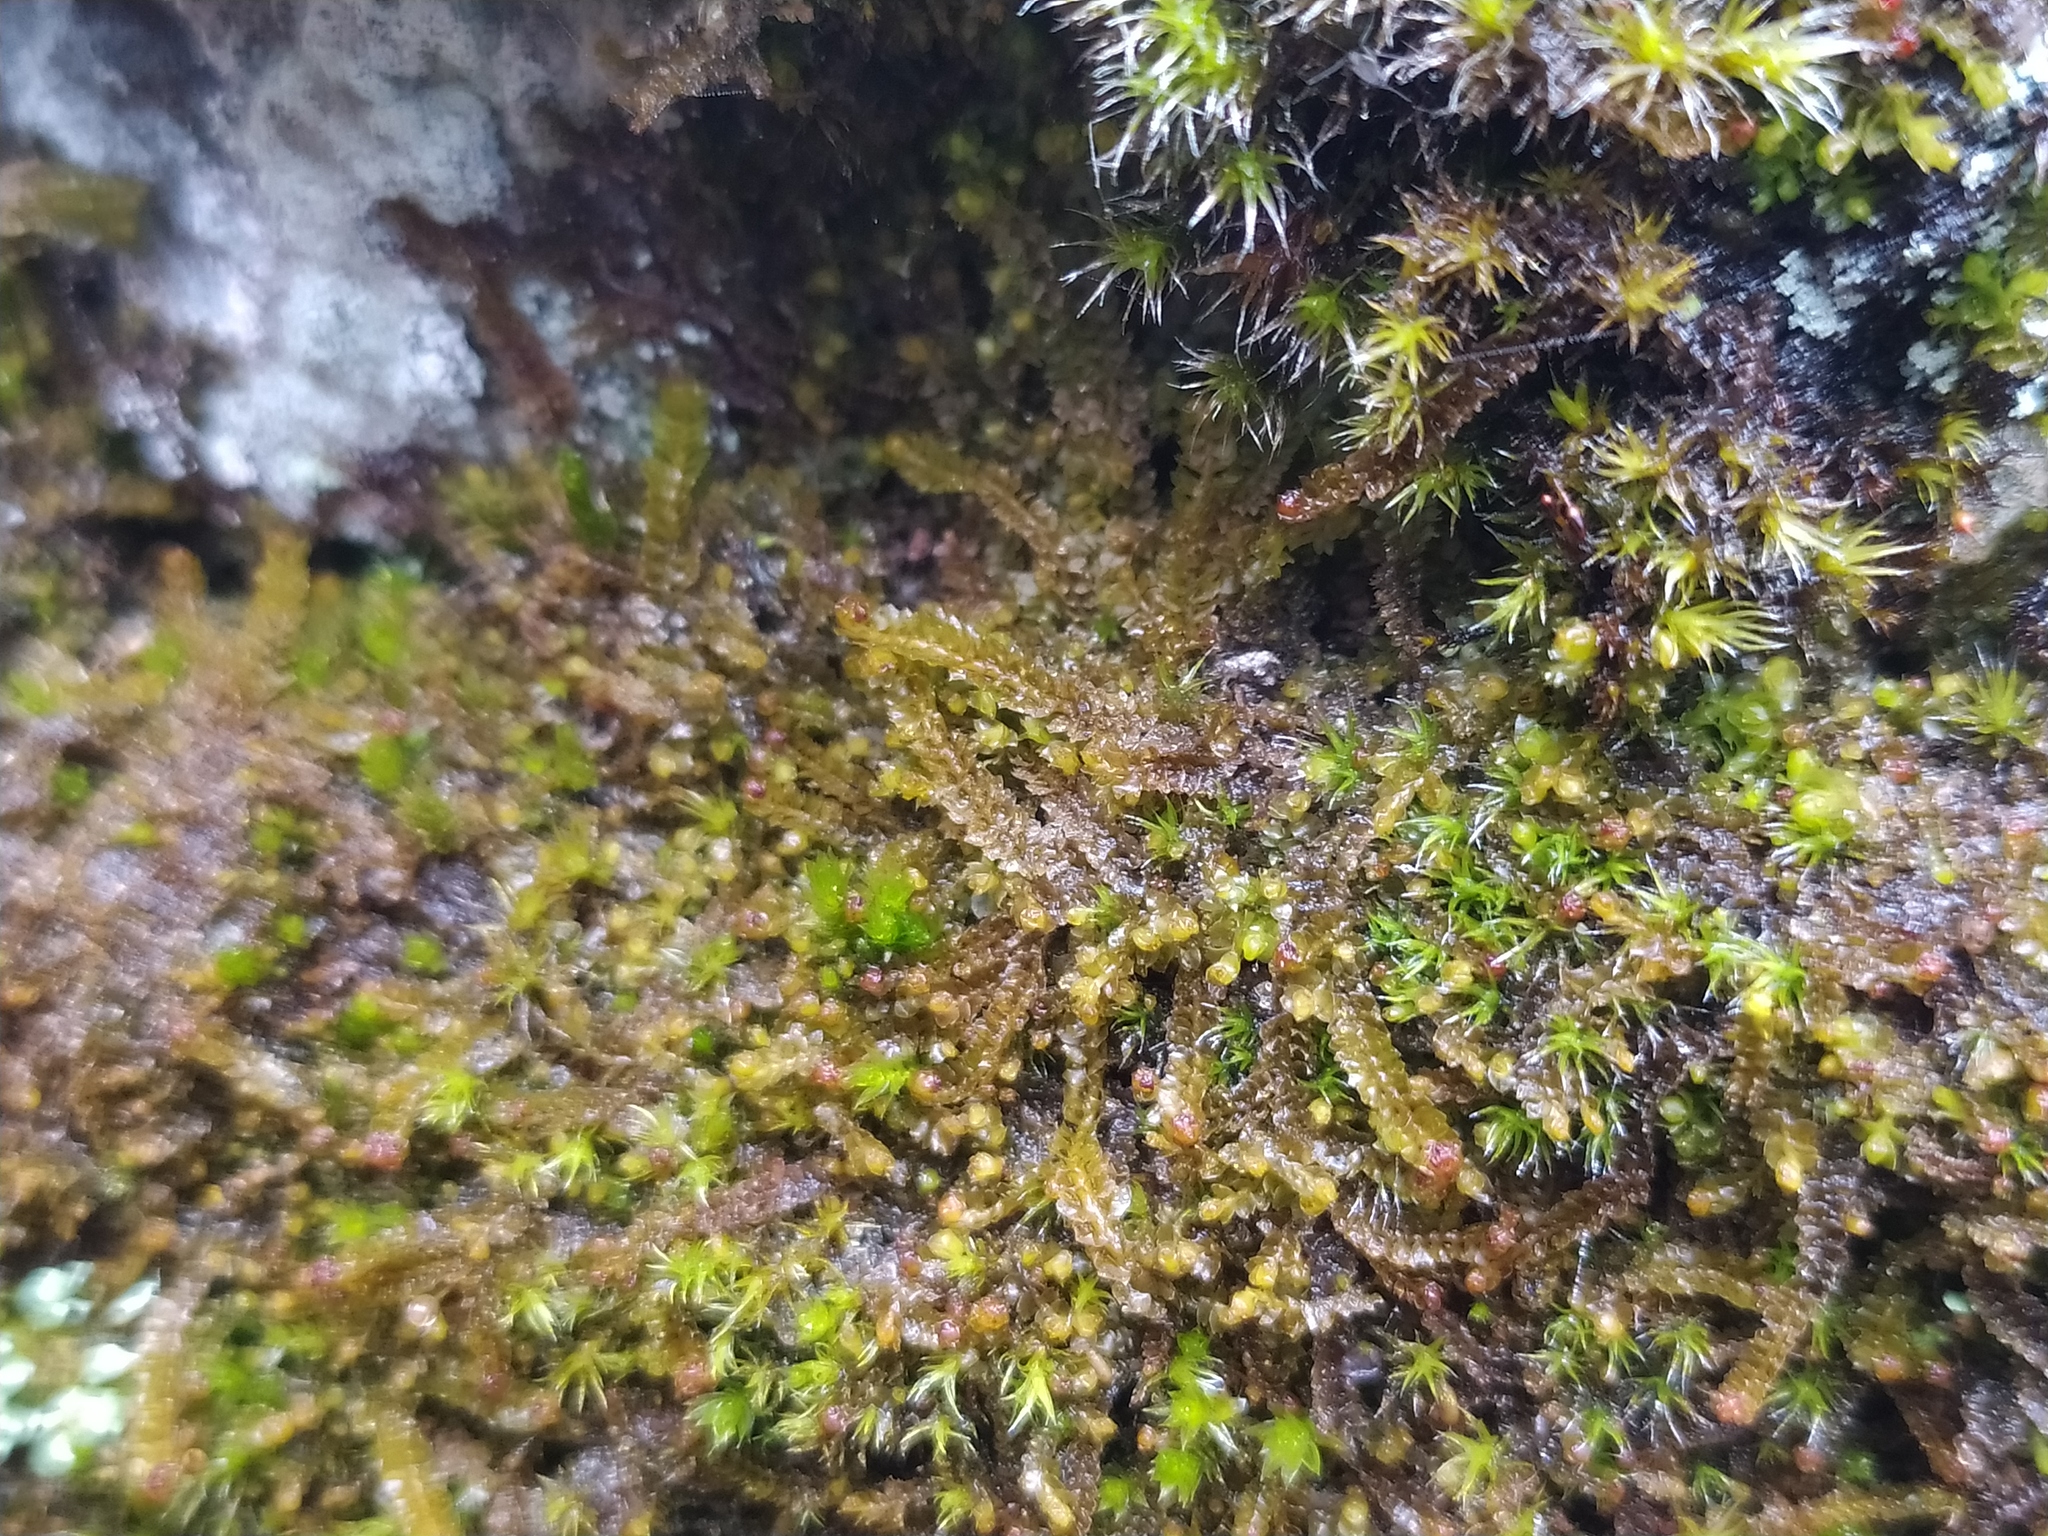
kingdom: Plantae
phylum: Marchantiophyta
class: Jungermanniopsida
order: Jungermanniales
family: Anastrophyllaceae
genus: Barbilophozia
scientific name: Barbilophozia sudetica
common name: Hill notchwort
